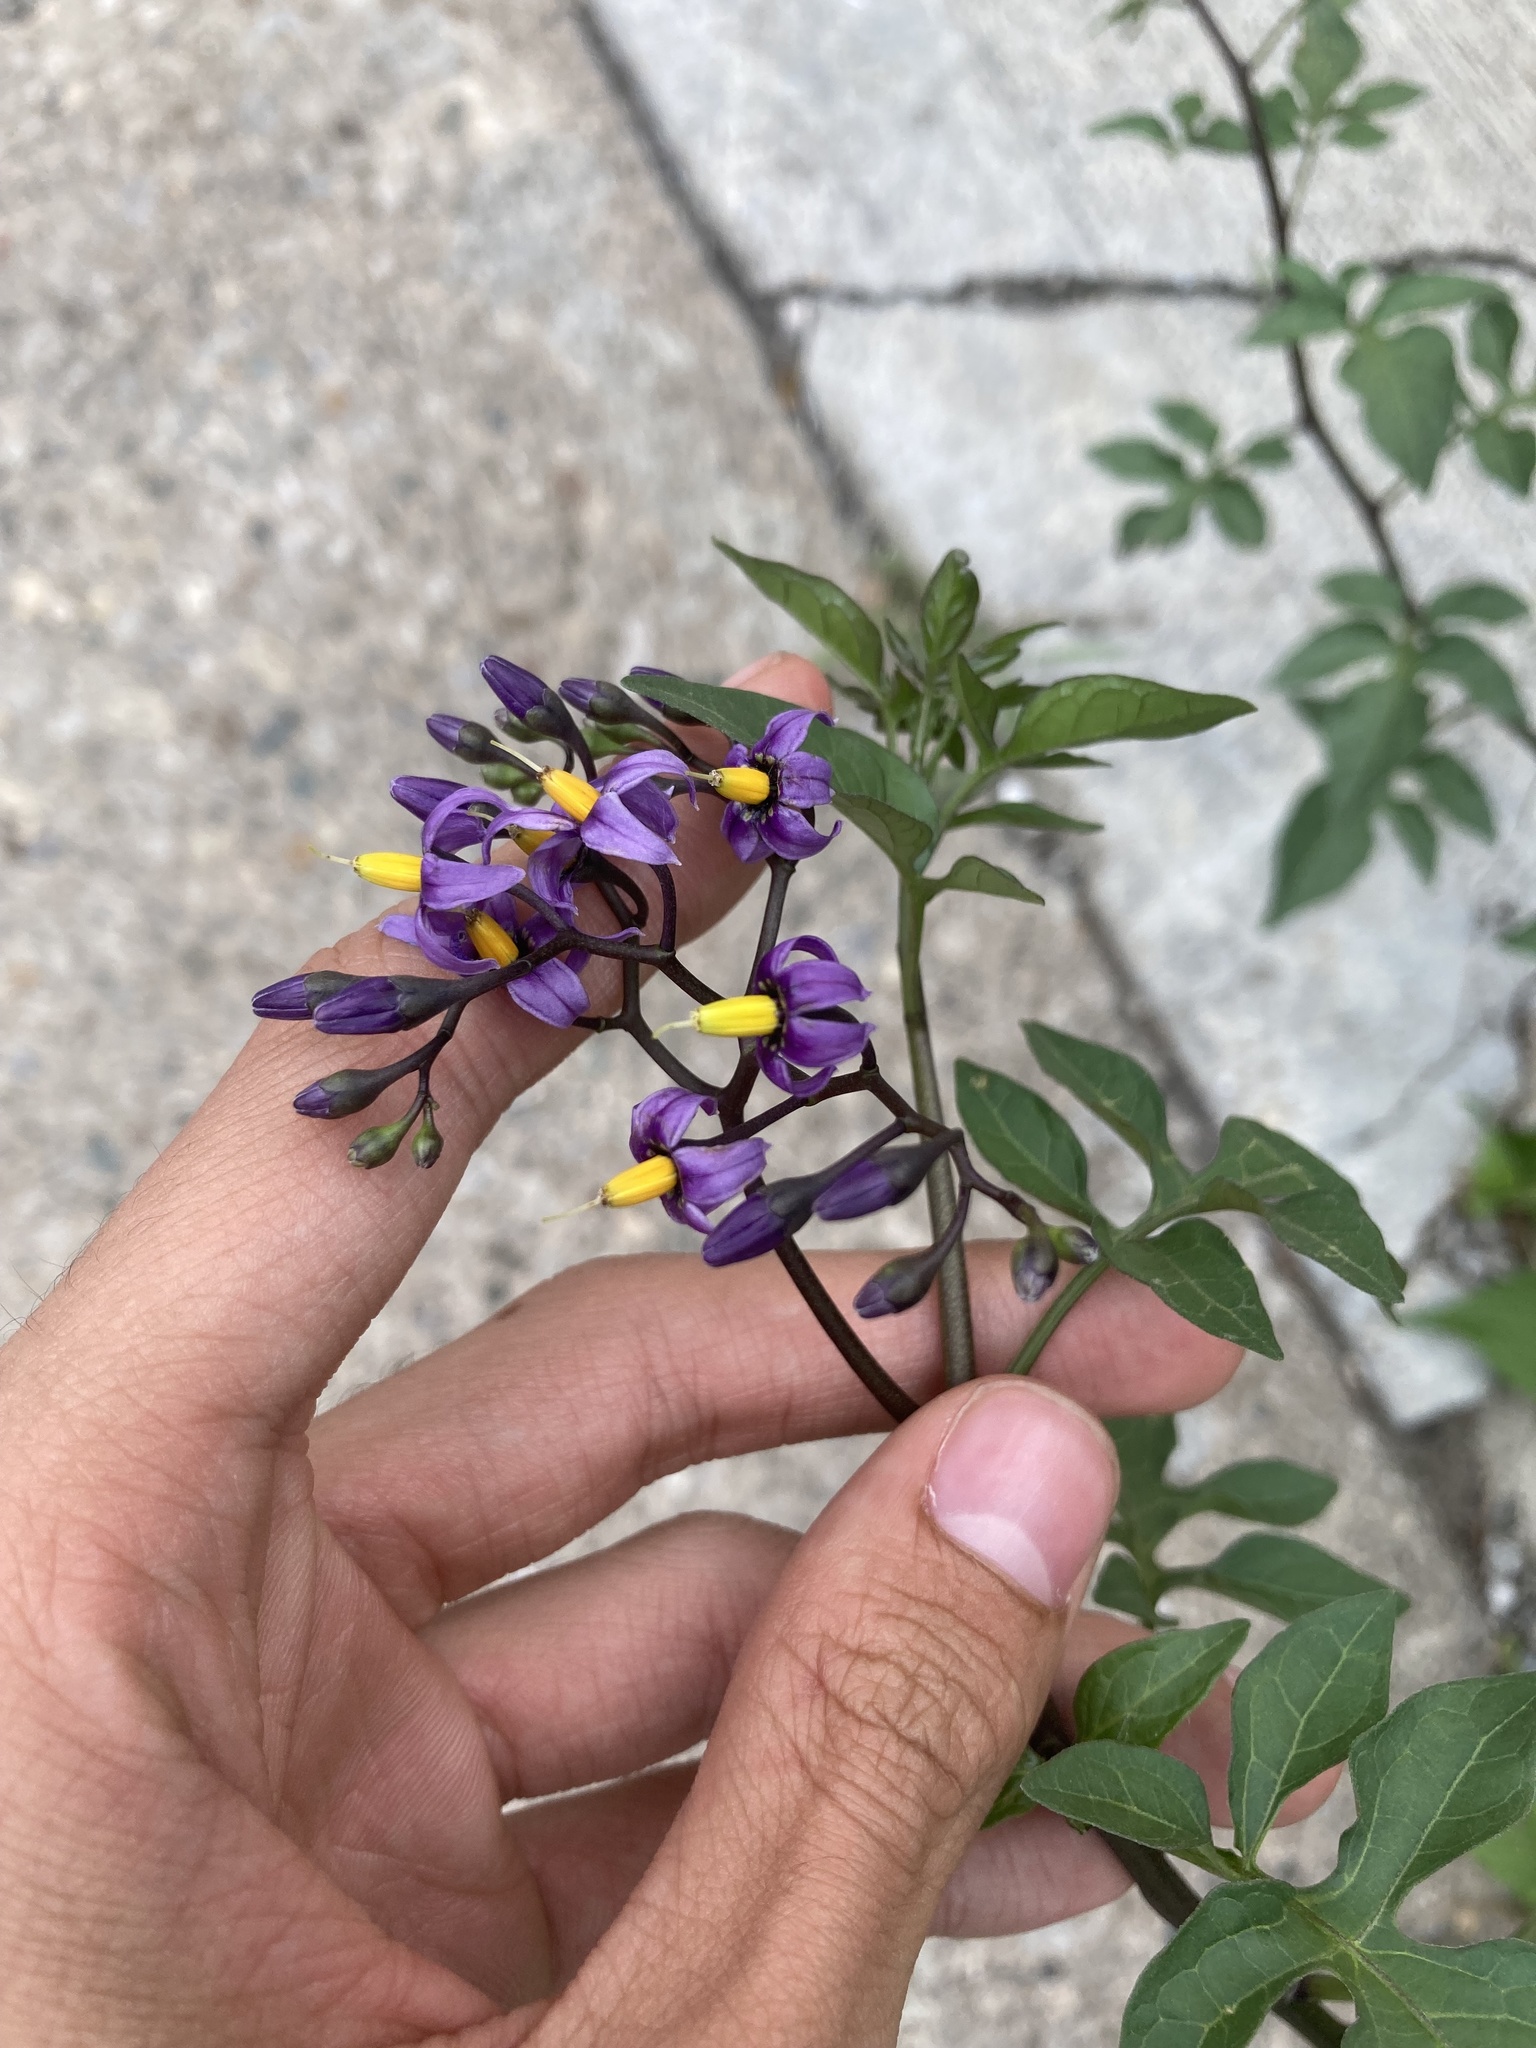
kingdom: Plantae
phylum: Tracheophyta
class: Magnoliopsida
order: Solanales
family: Solanaceae
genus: Solanum
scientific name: Solanum dulcamara
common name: Climbing nightshade
